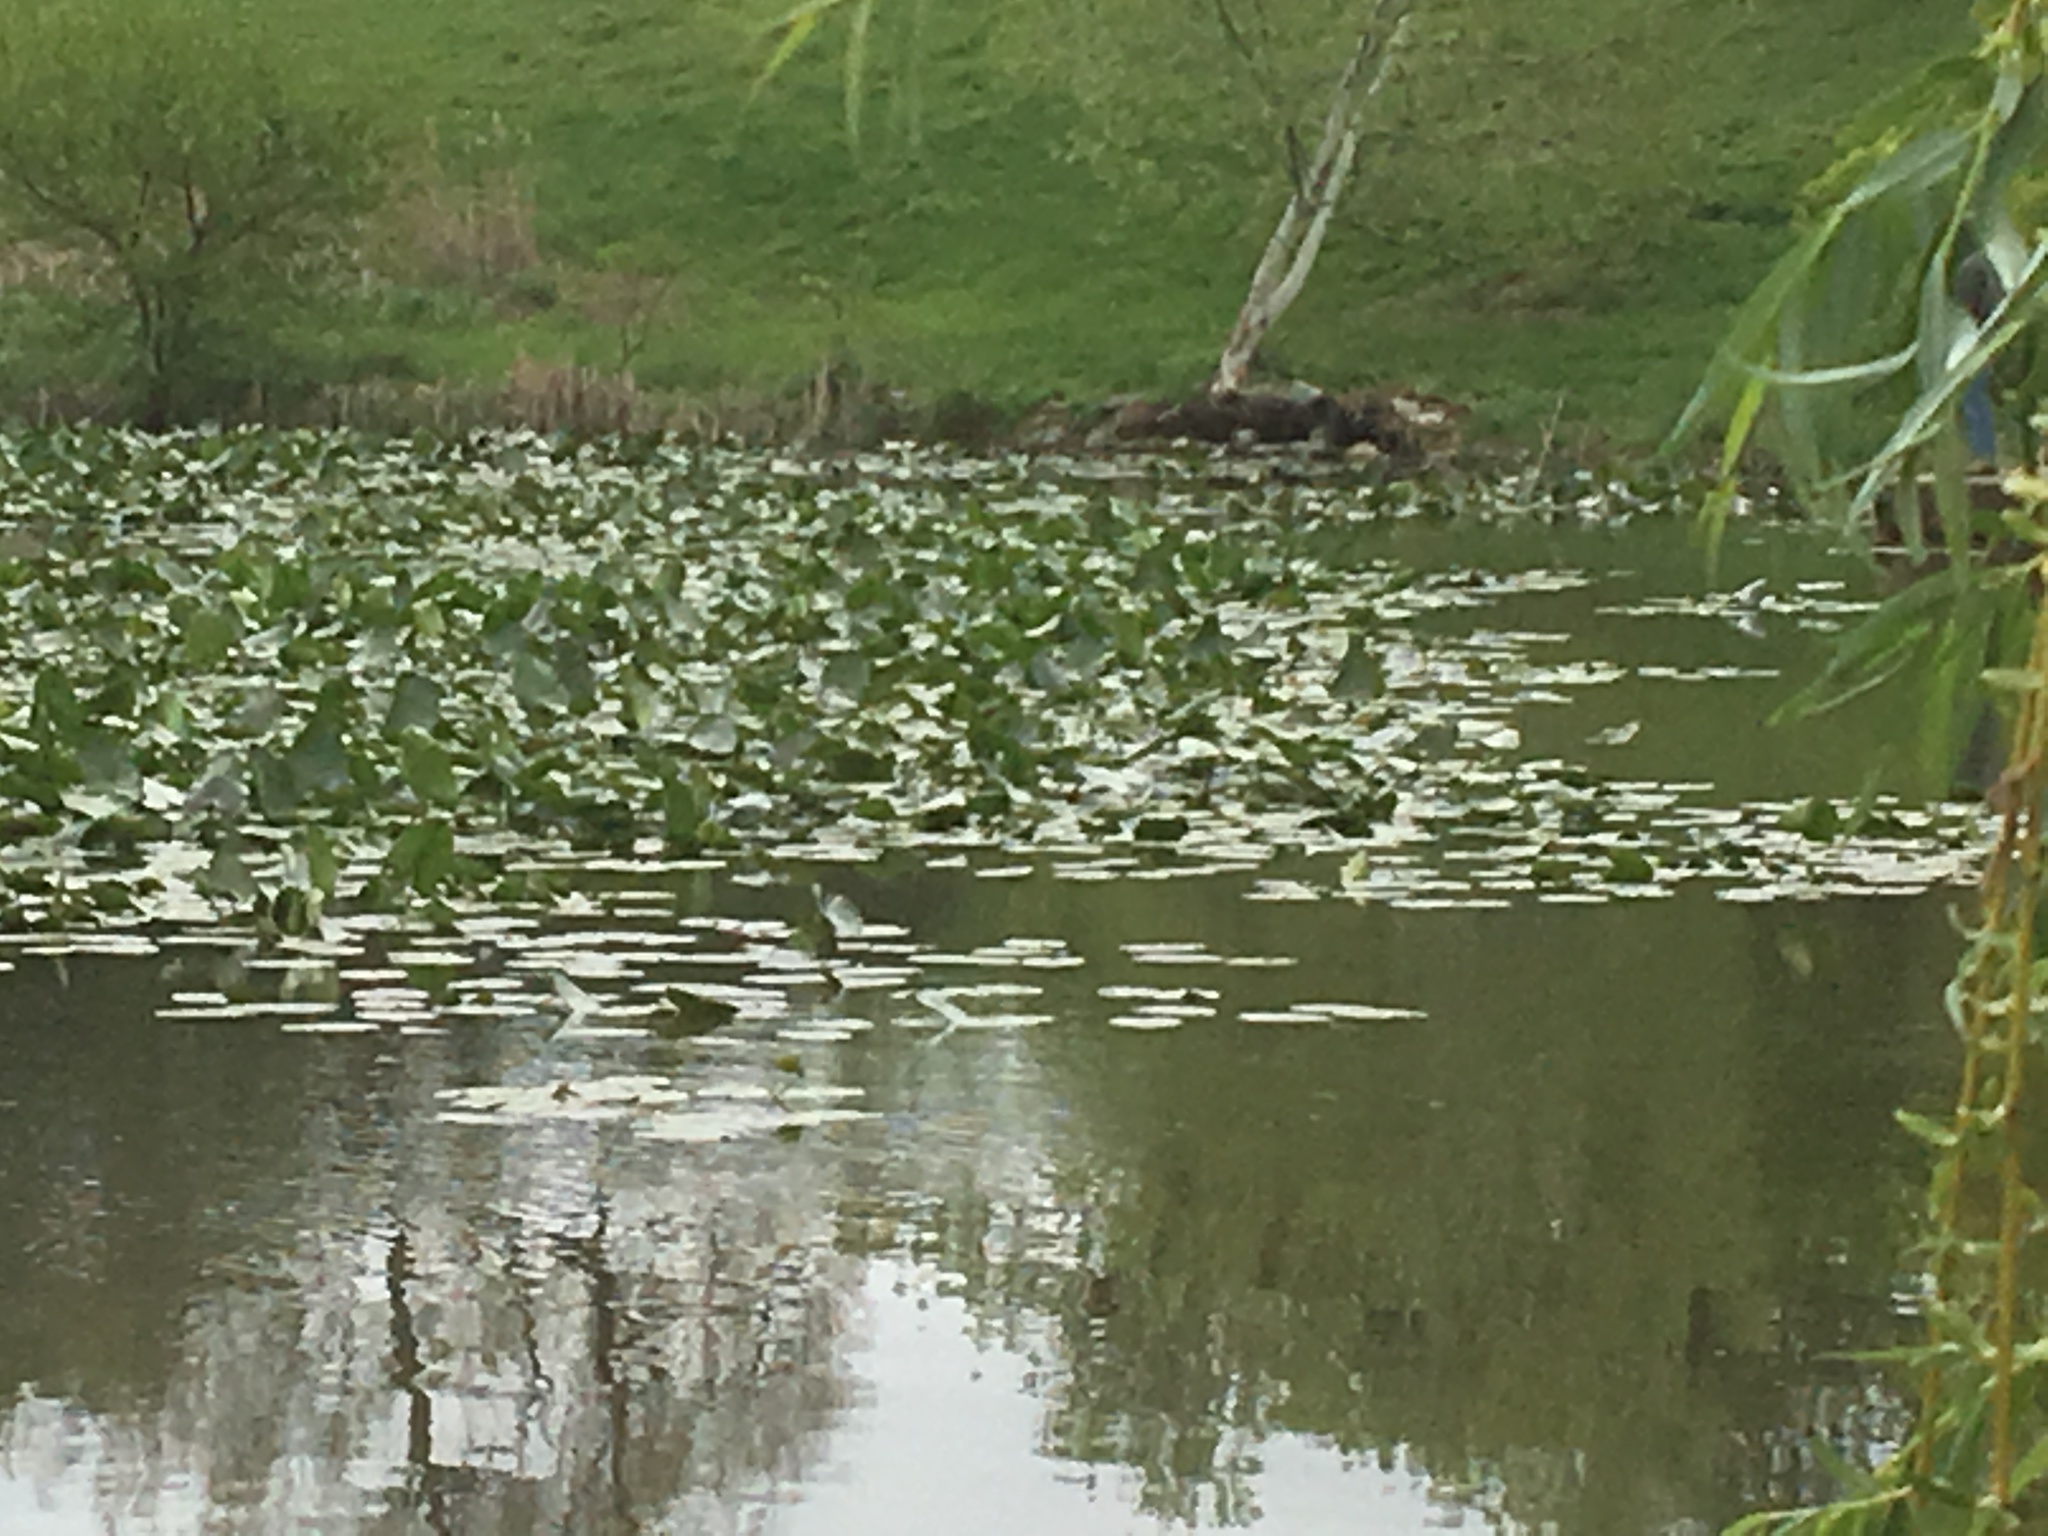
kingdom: Plantae
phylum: Tracheophyta
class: Magnoliopsida
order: Nymphaeales
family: Nymphaeaceae
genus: Nuphar
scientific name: Nuphar advena
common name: Spatter-dock
